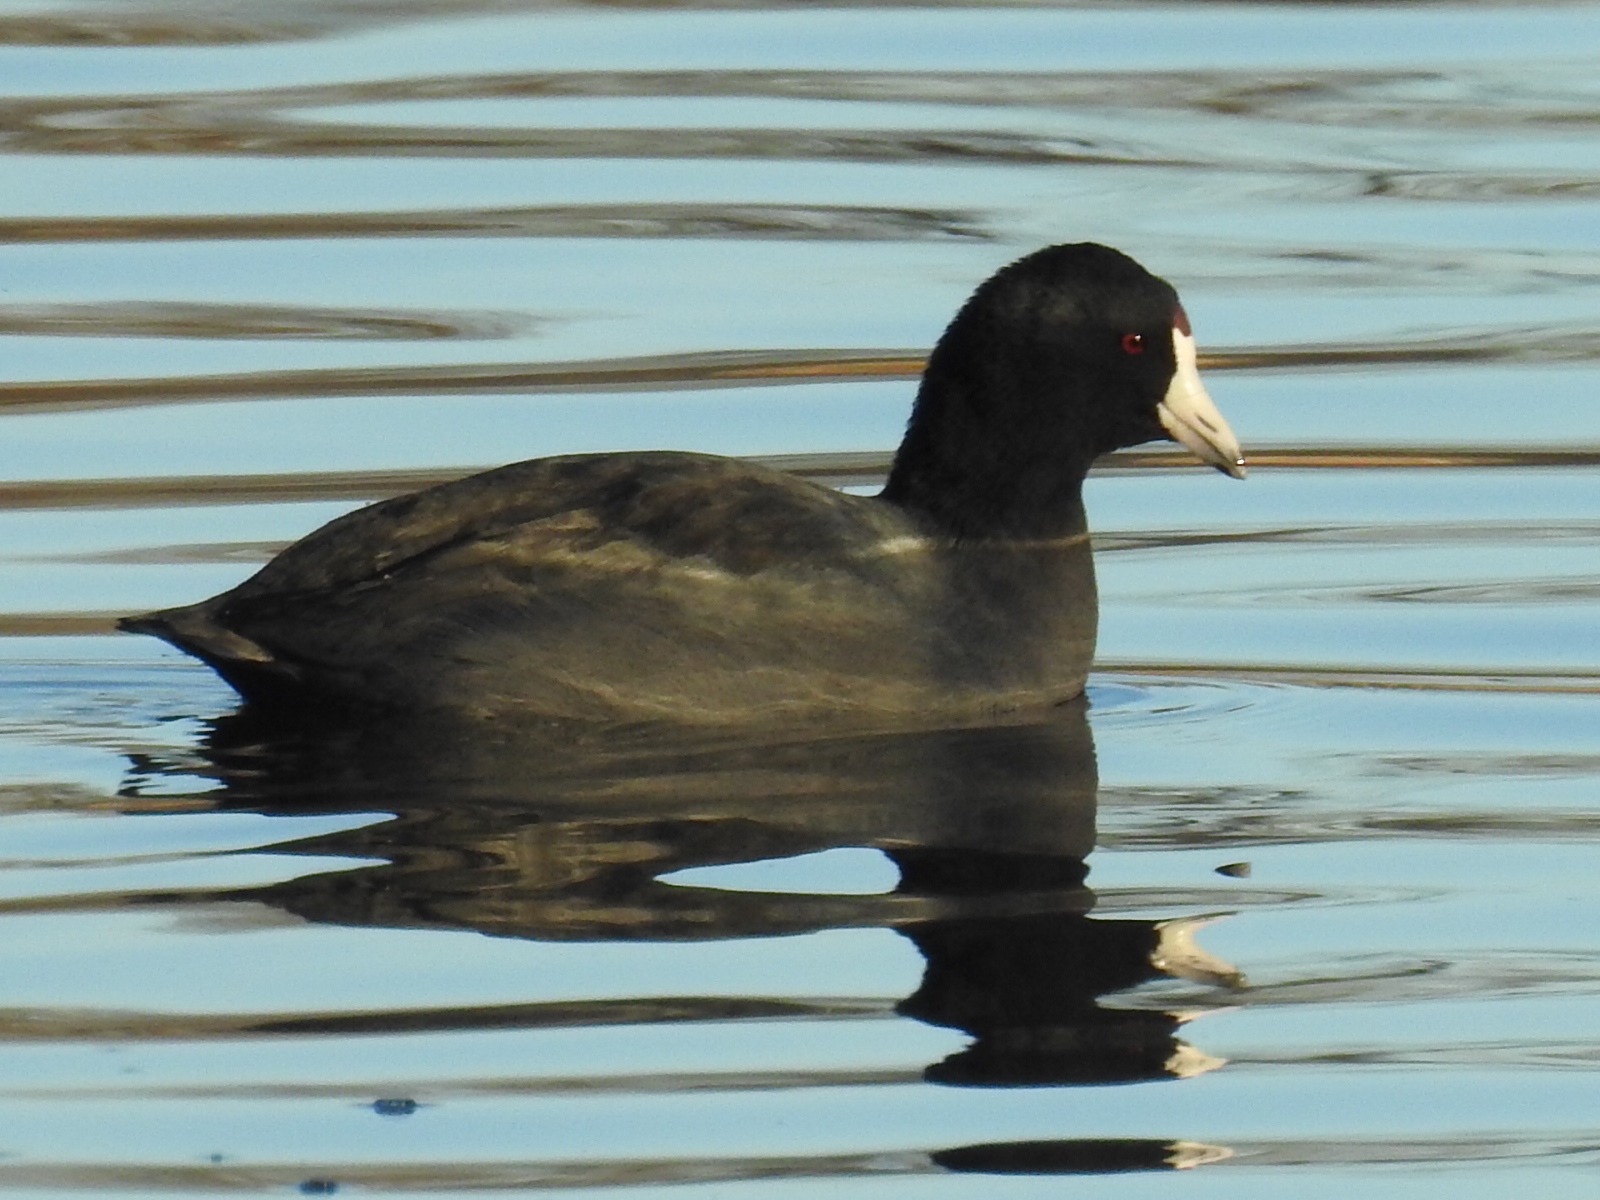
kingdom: Animalia
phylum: Chordata
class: Aves
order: Gruiformes
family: Rallidae
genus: Fulica
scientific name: Fulica americana
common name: American coot
